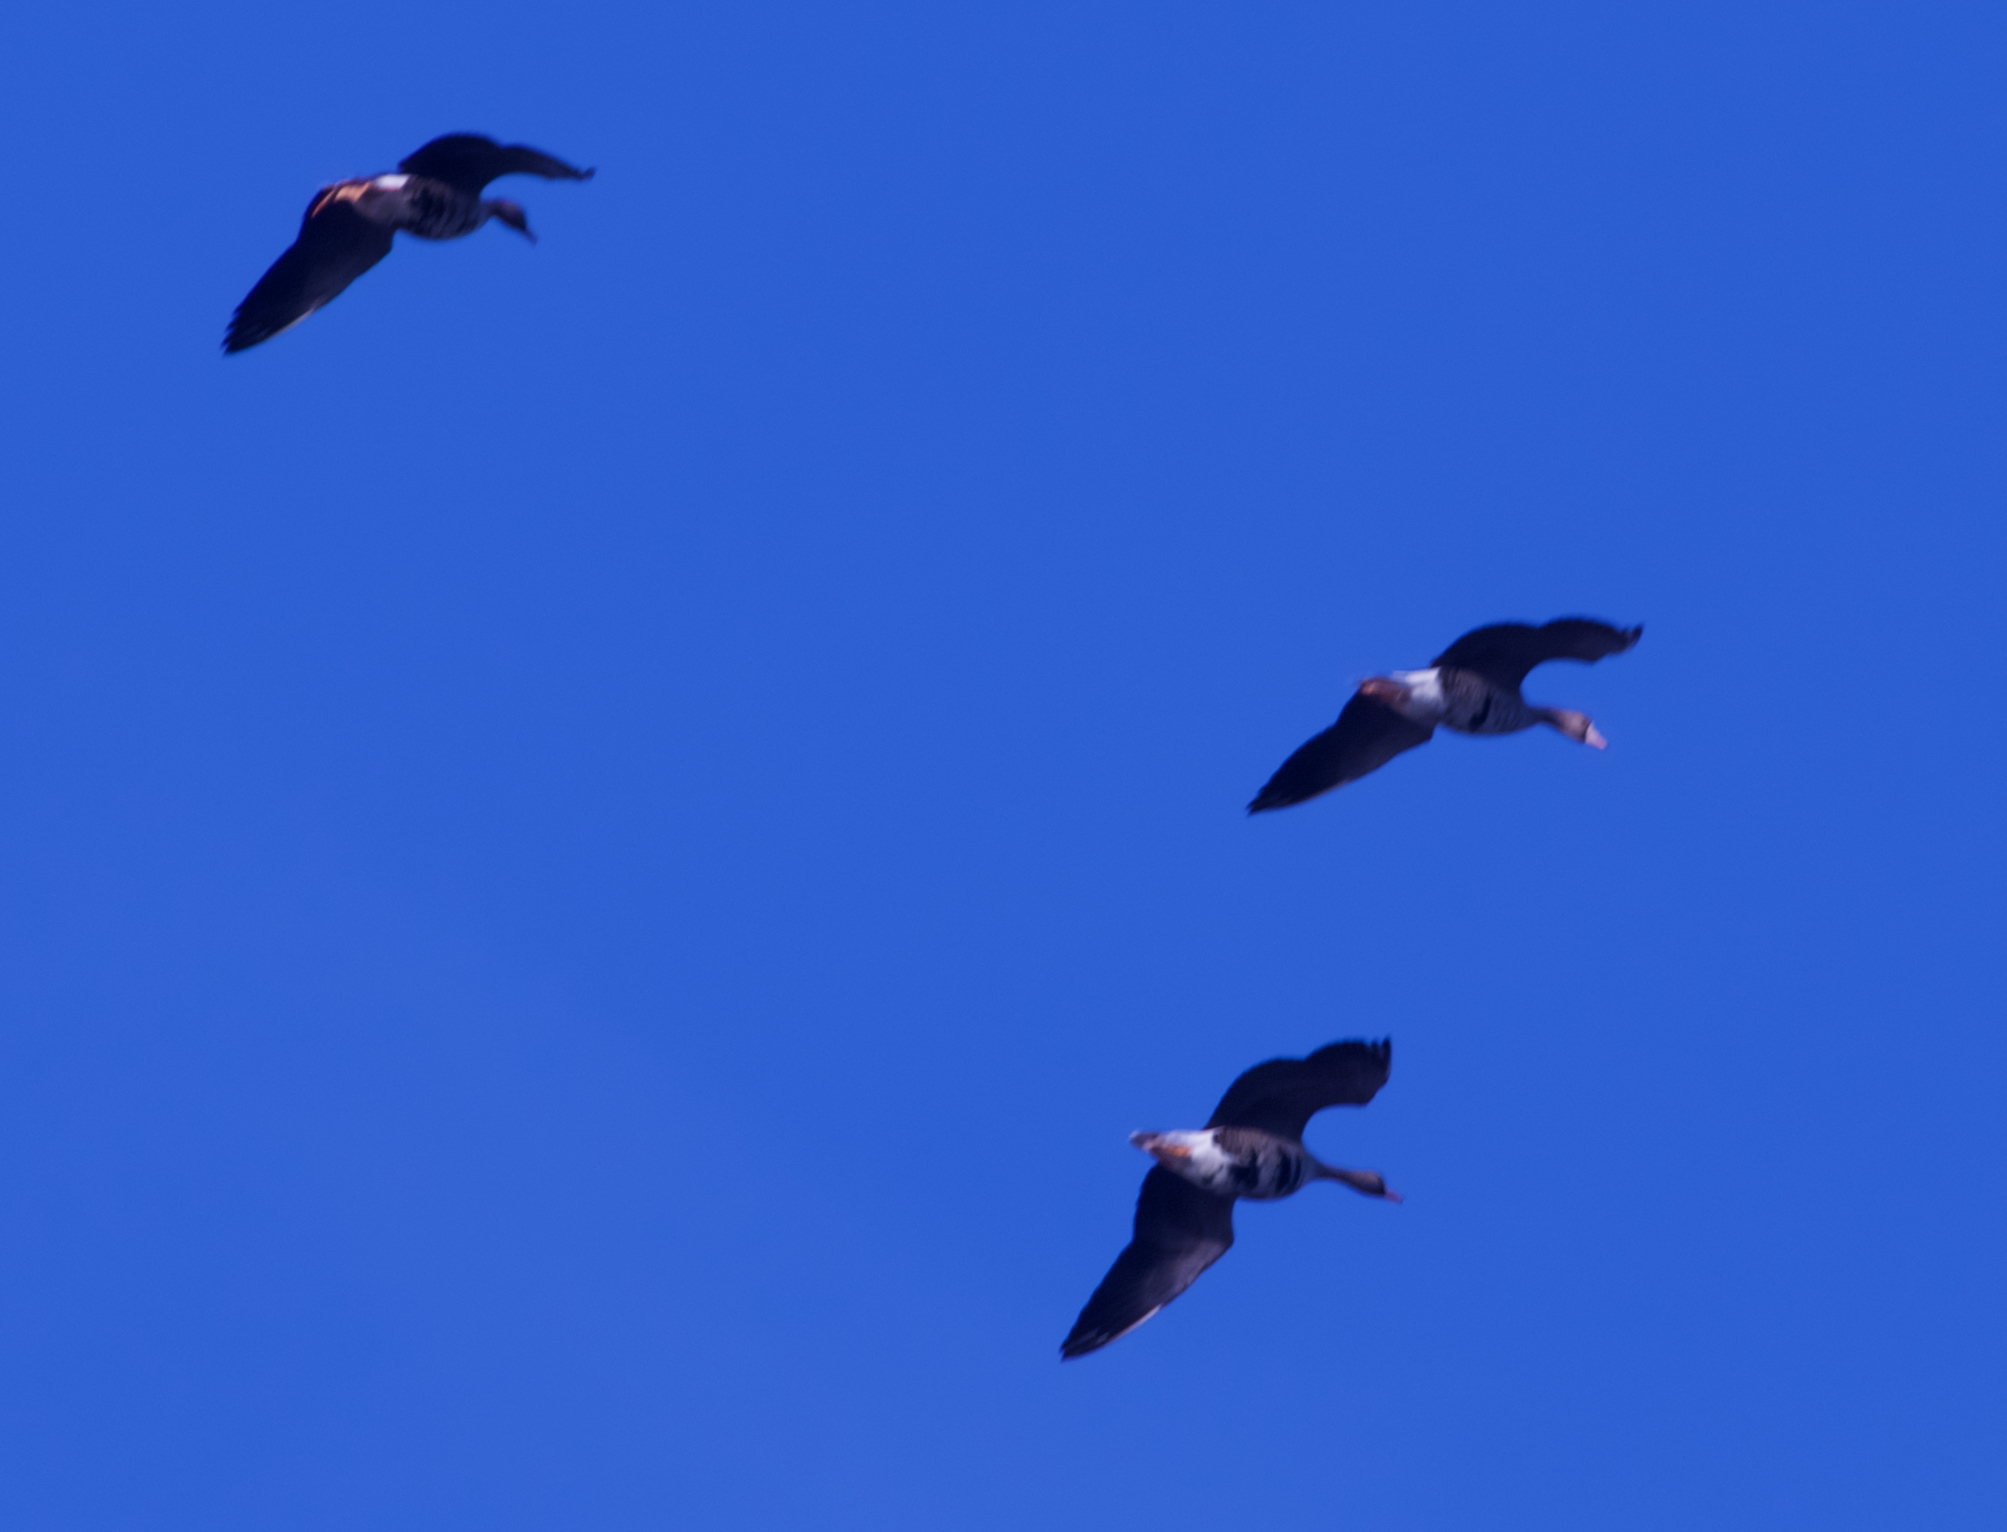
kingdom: Animalia
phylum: Chordata
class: Aves
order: Anseriformes
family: Anatidae
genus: Anser
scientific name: Anser albifrons
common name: Greater white-fronted goose
